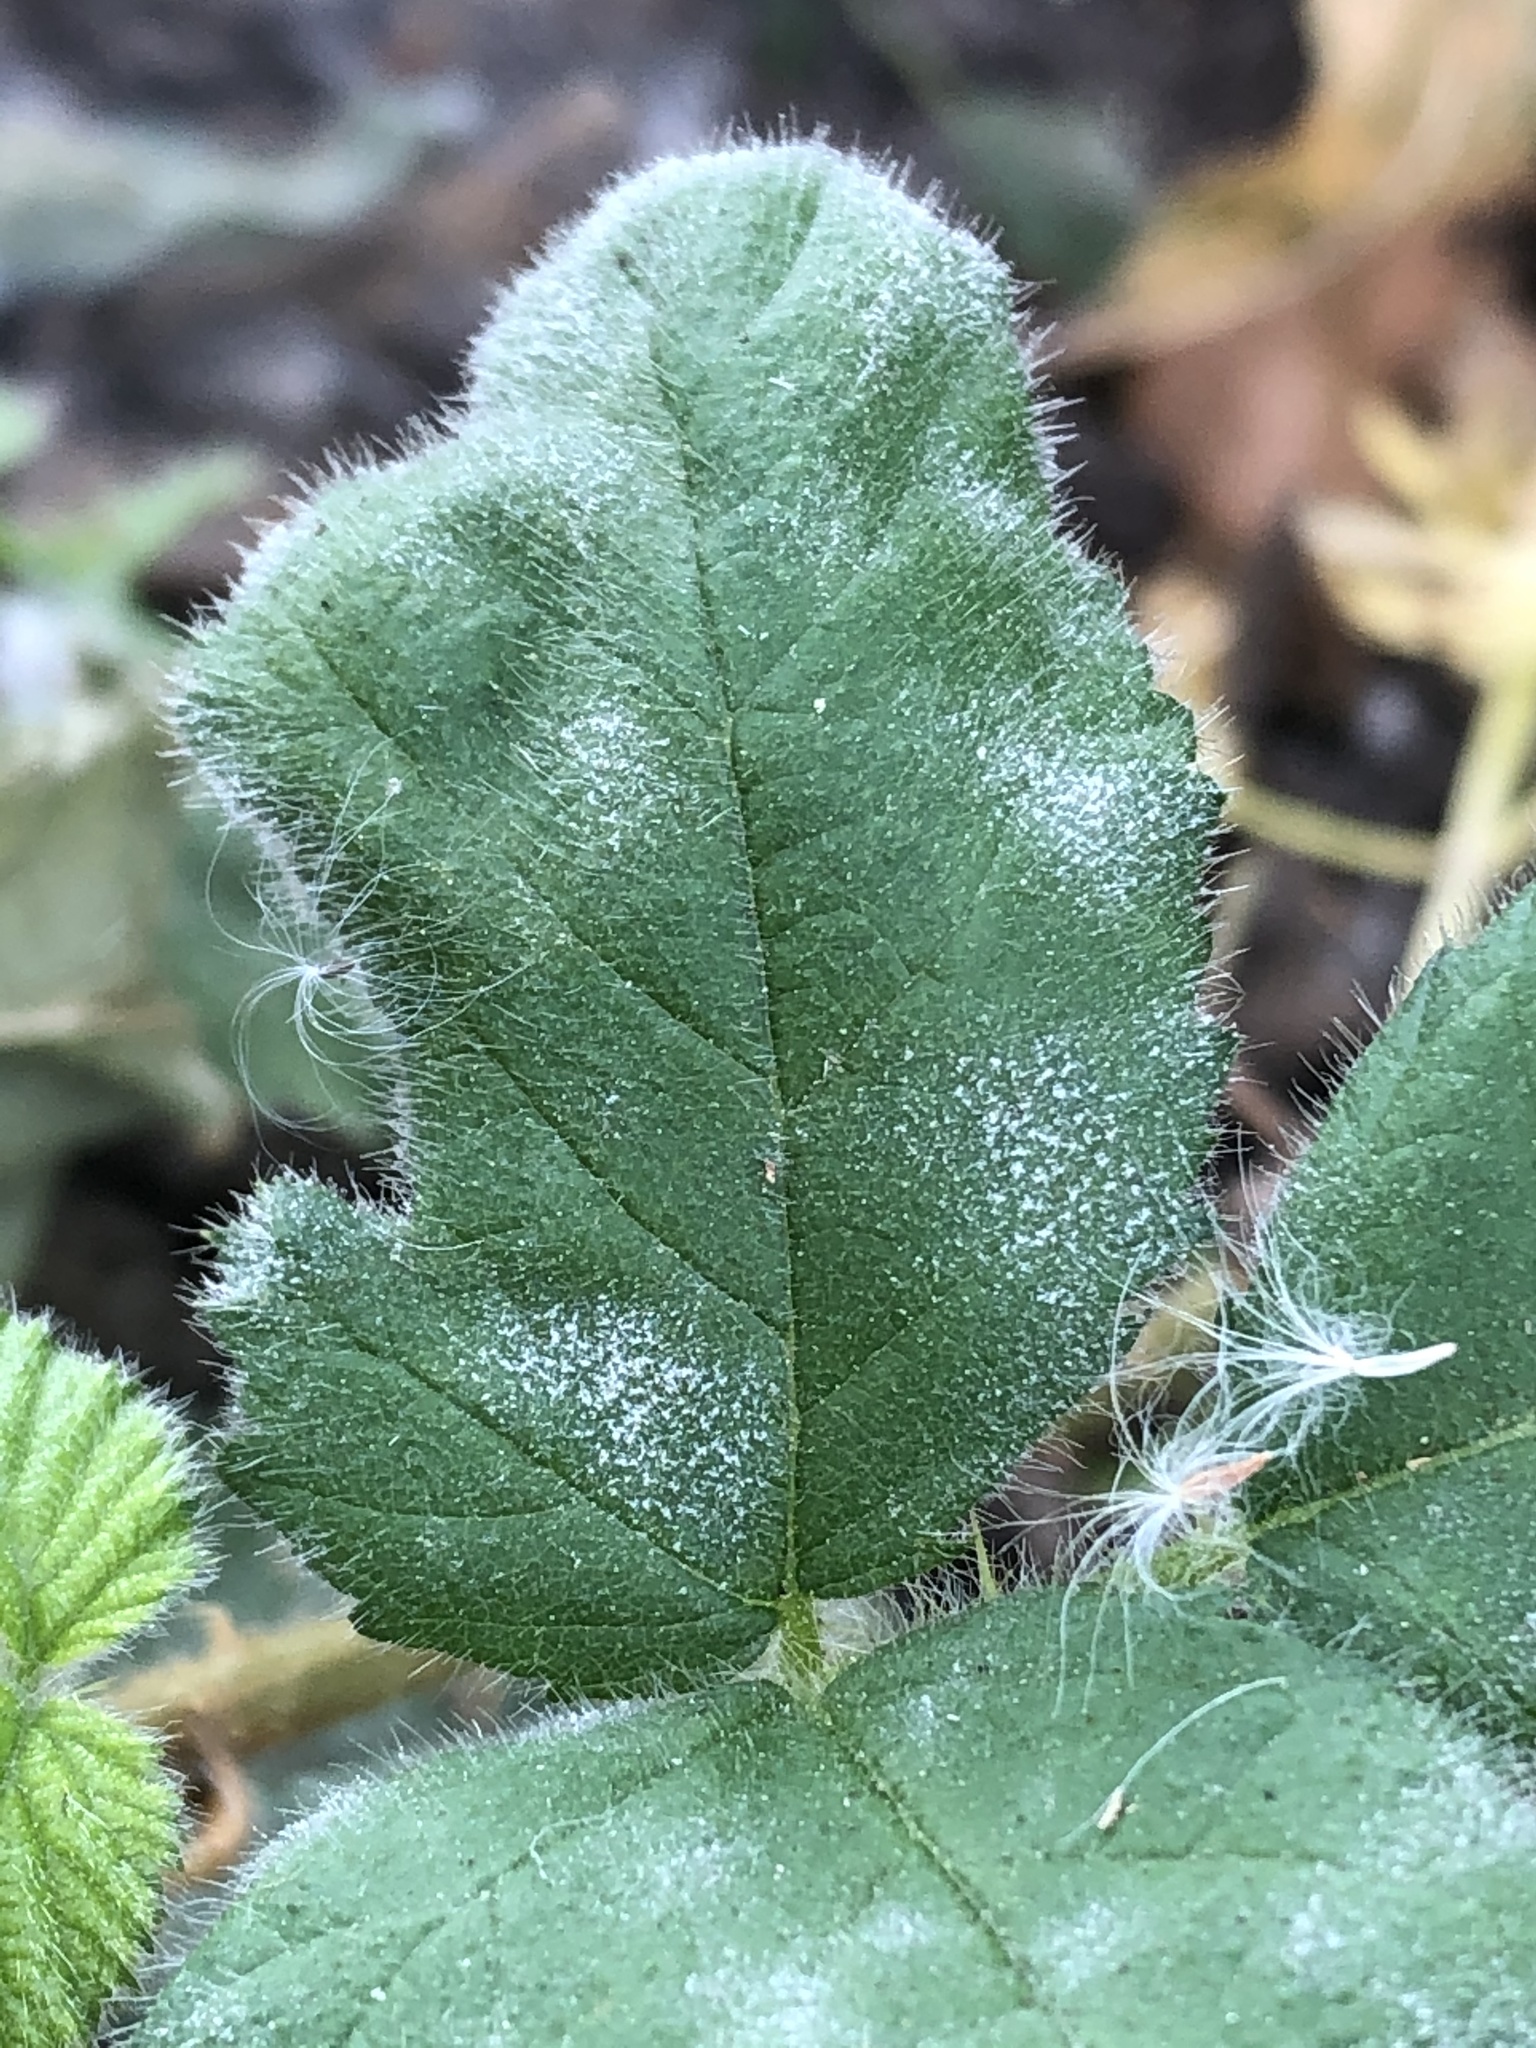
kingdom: Fungi
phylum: Ascomycota
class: Leotiomycetes
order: Helotiales
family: Erysiphaceae
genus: Podosphaera
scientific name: Podosphaera aphanis
